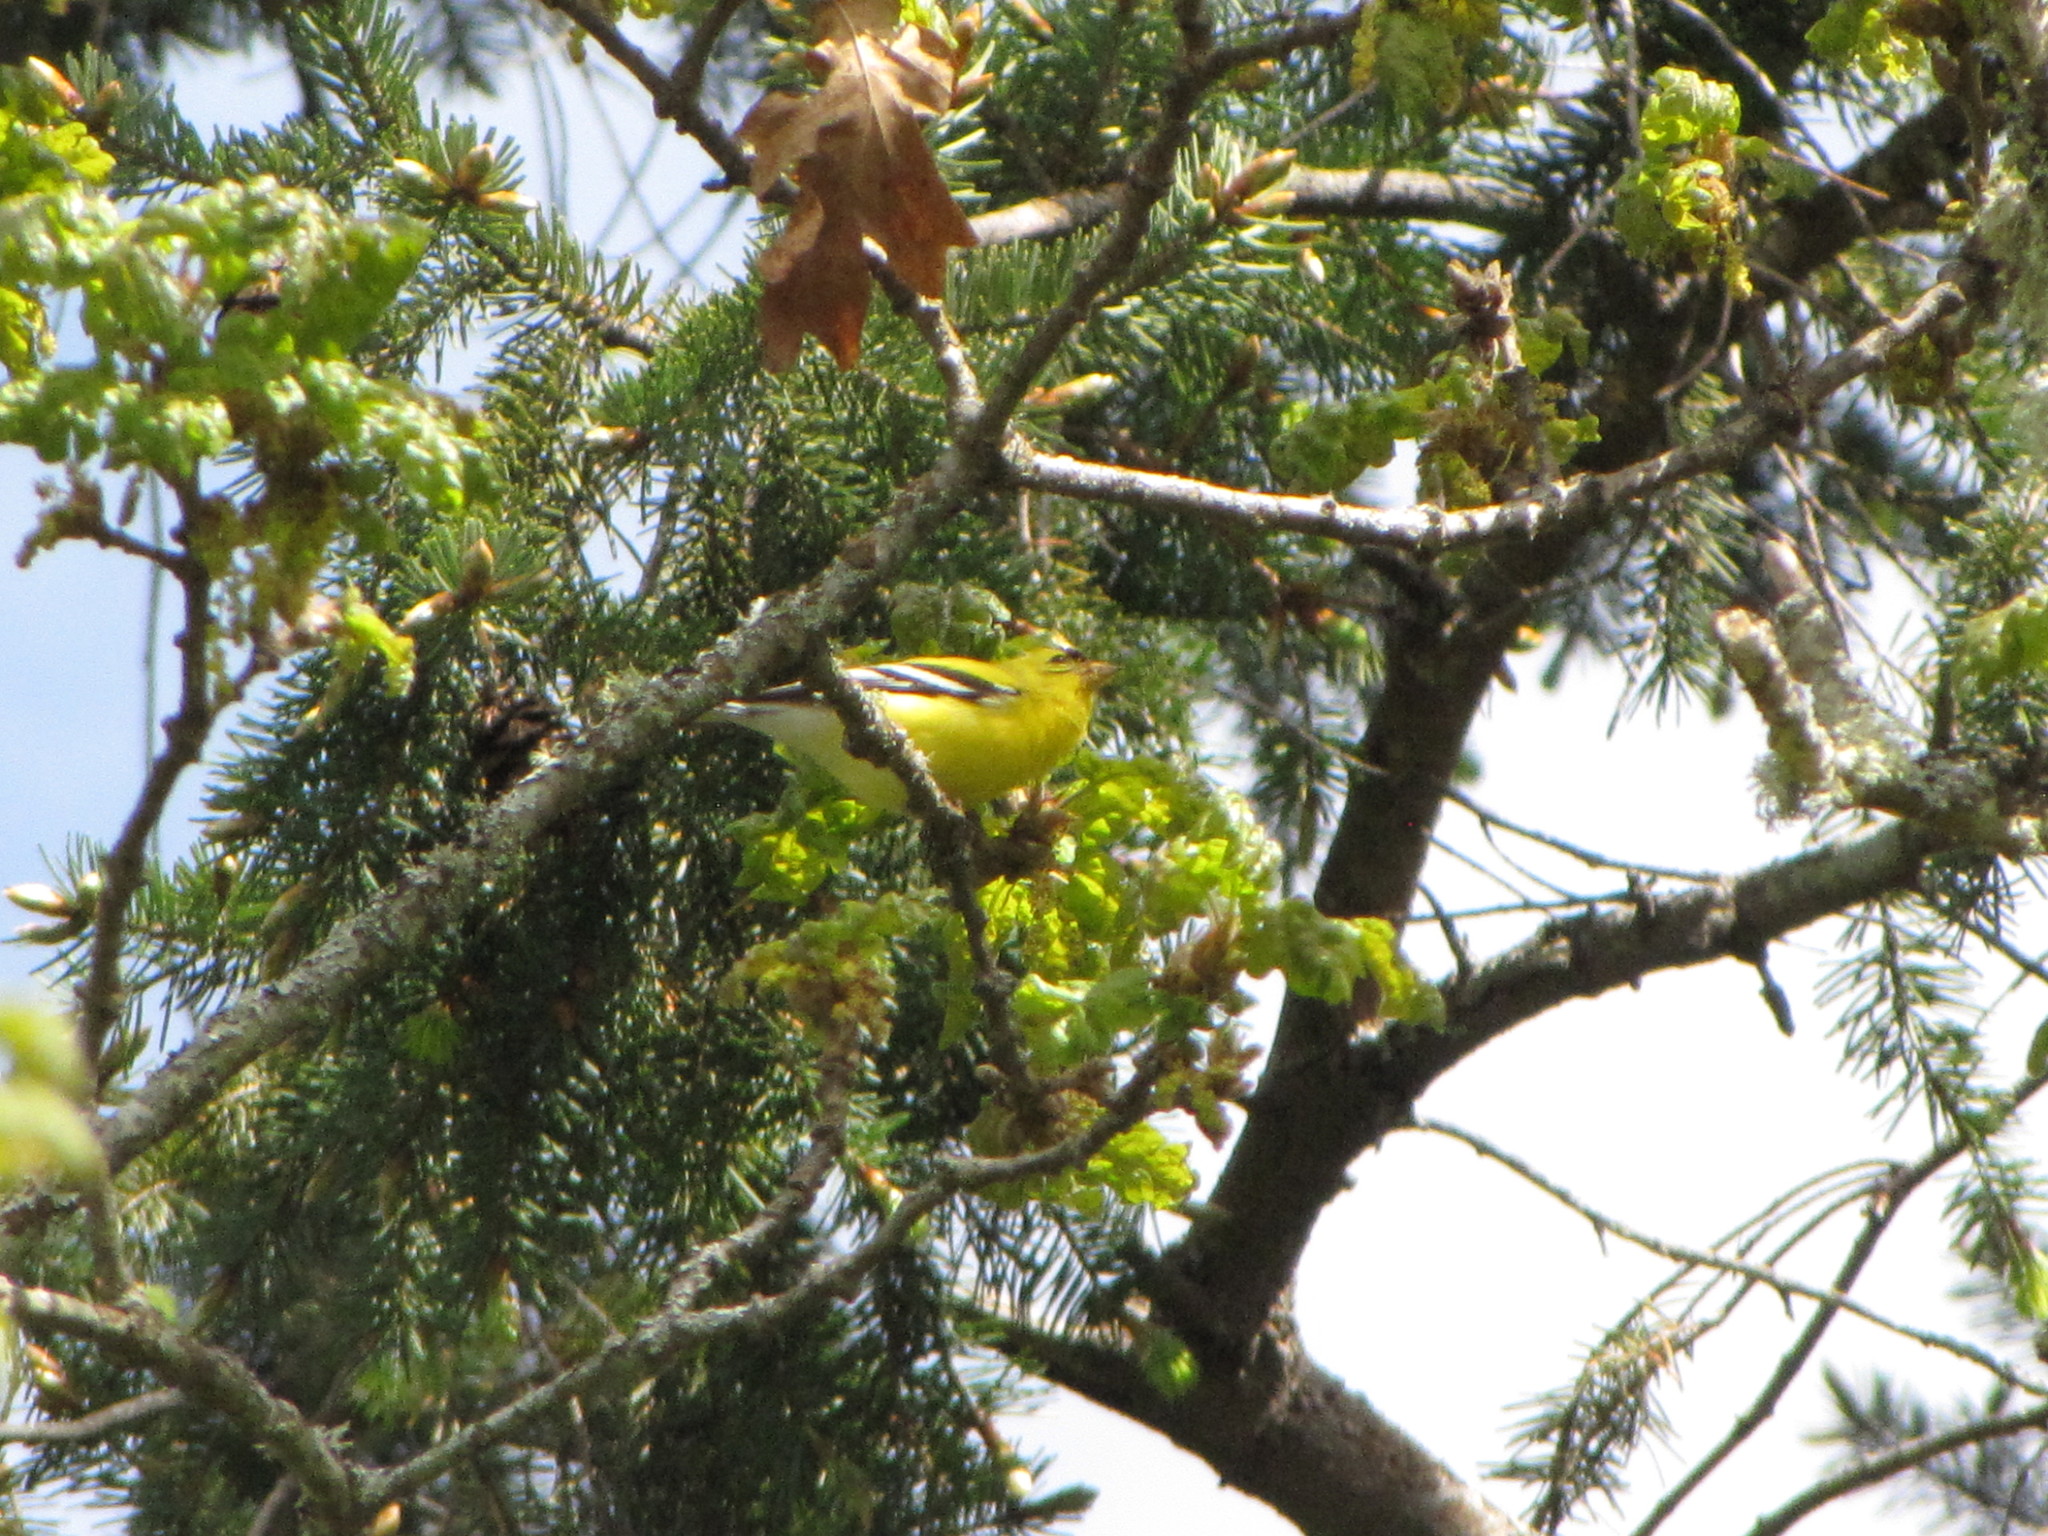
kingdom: Animalia
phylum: Chordata
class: Aves
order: Passeriformes
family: Fringillidae
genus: Spinus
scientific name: Spinus tristis
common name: American goldfinch
